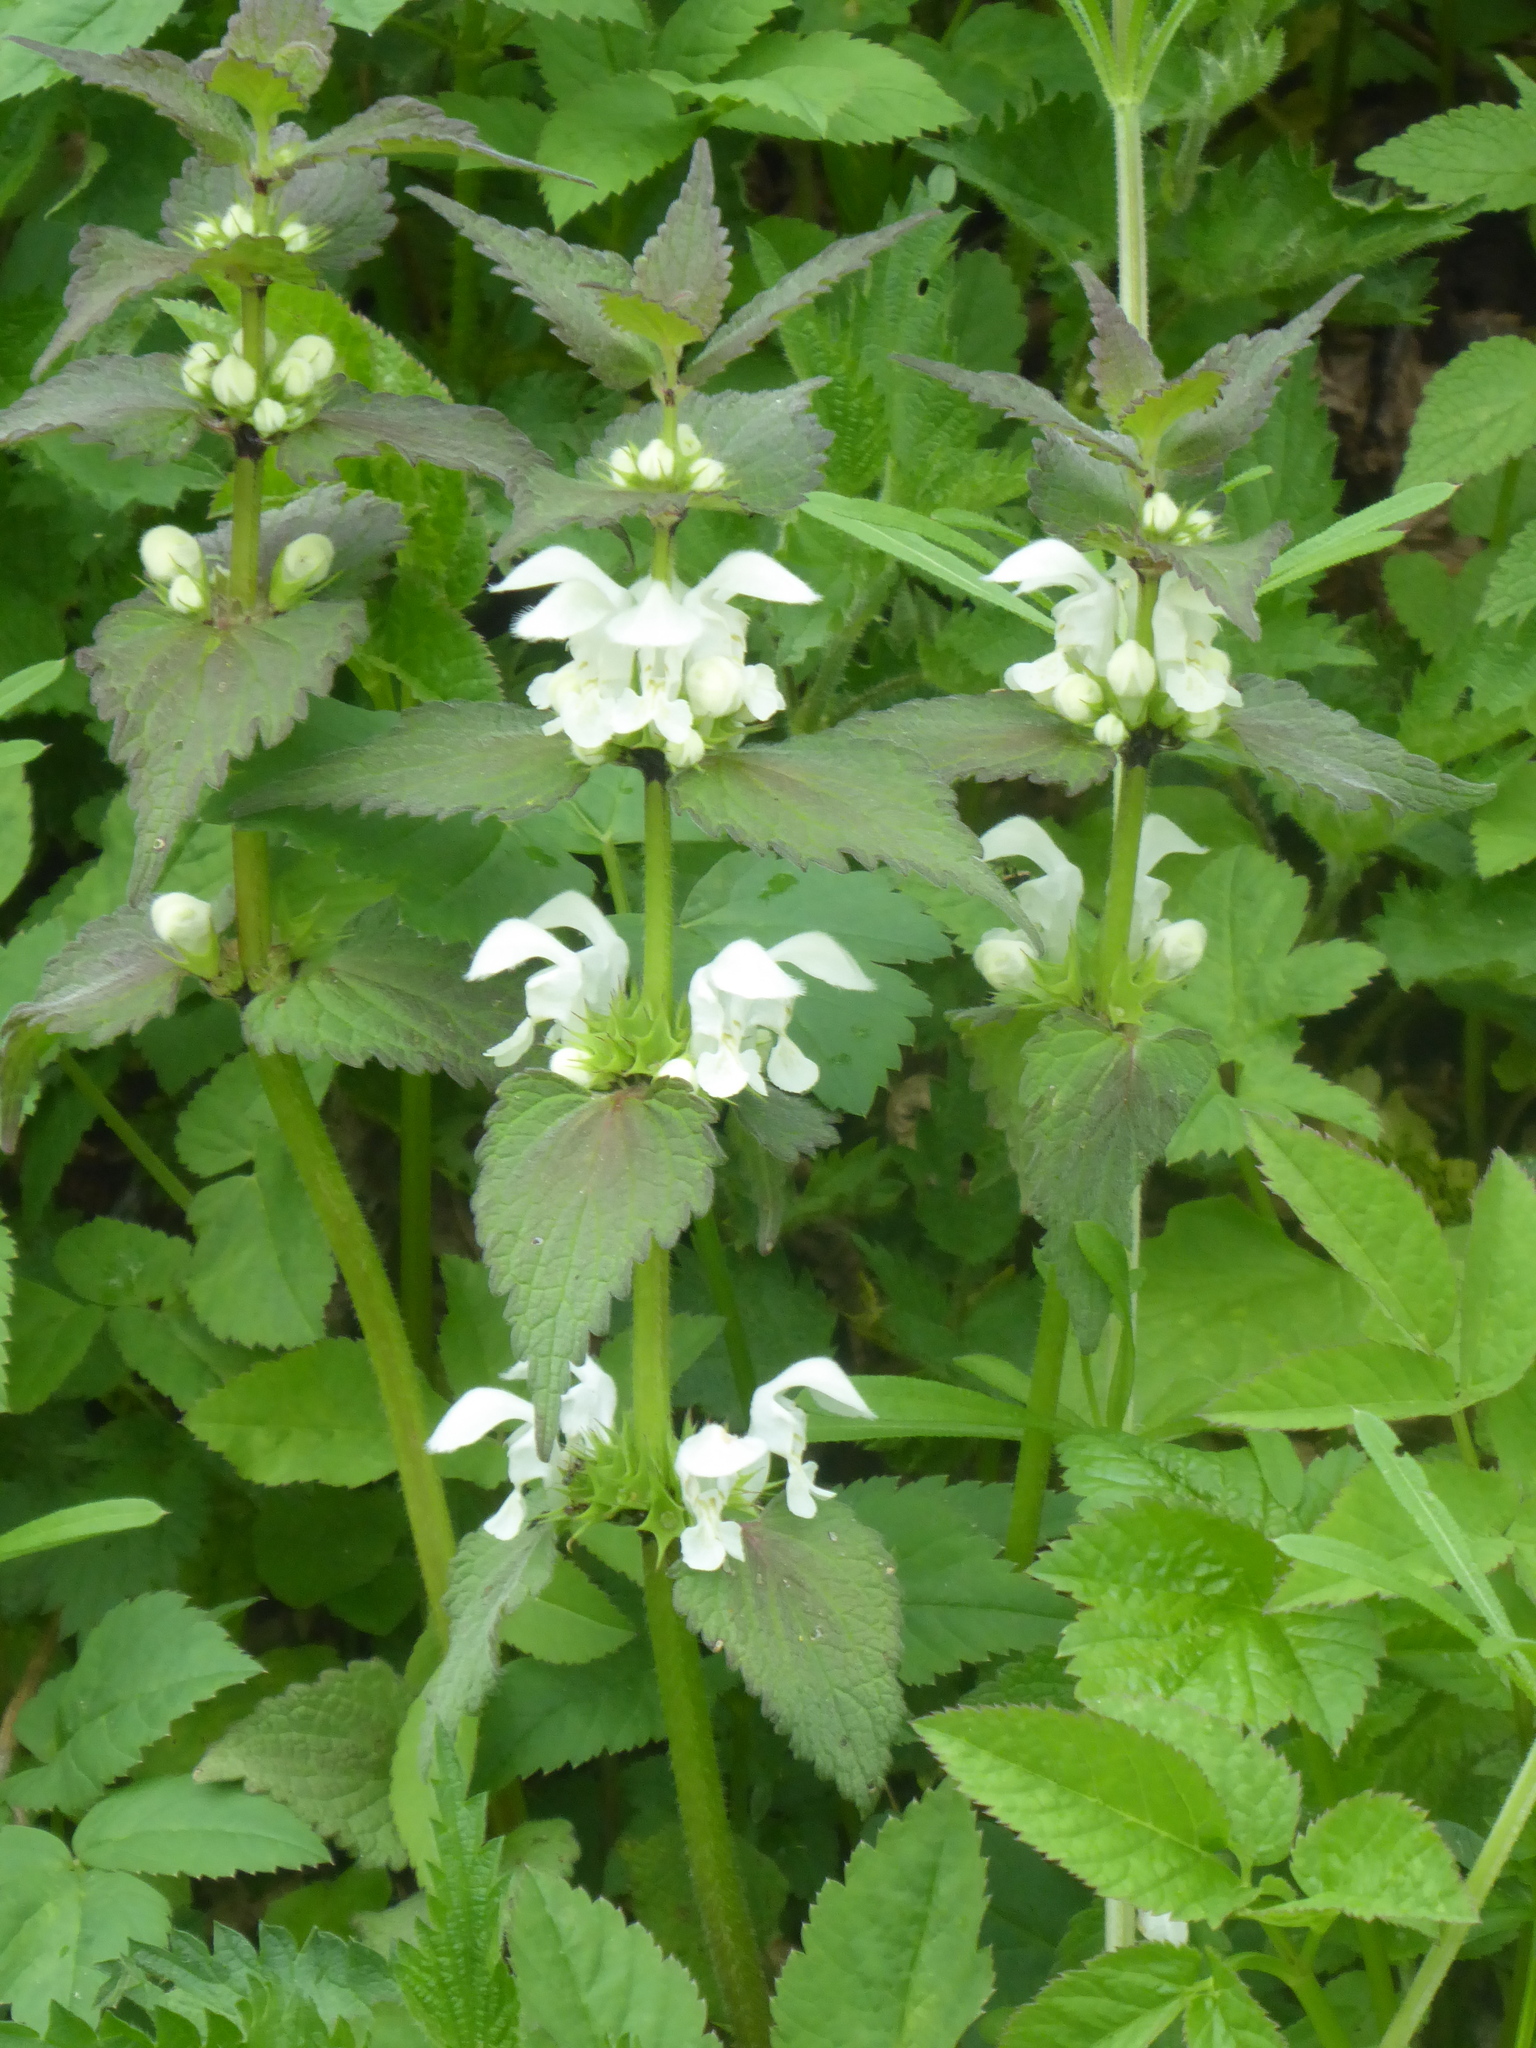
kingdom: Plantae
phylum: Tracheophyta
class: Magnoliopsida
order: Lamiales
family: Lamiaceae
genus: Lamium
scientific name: Lamium album
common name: White dead-nettle
